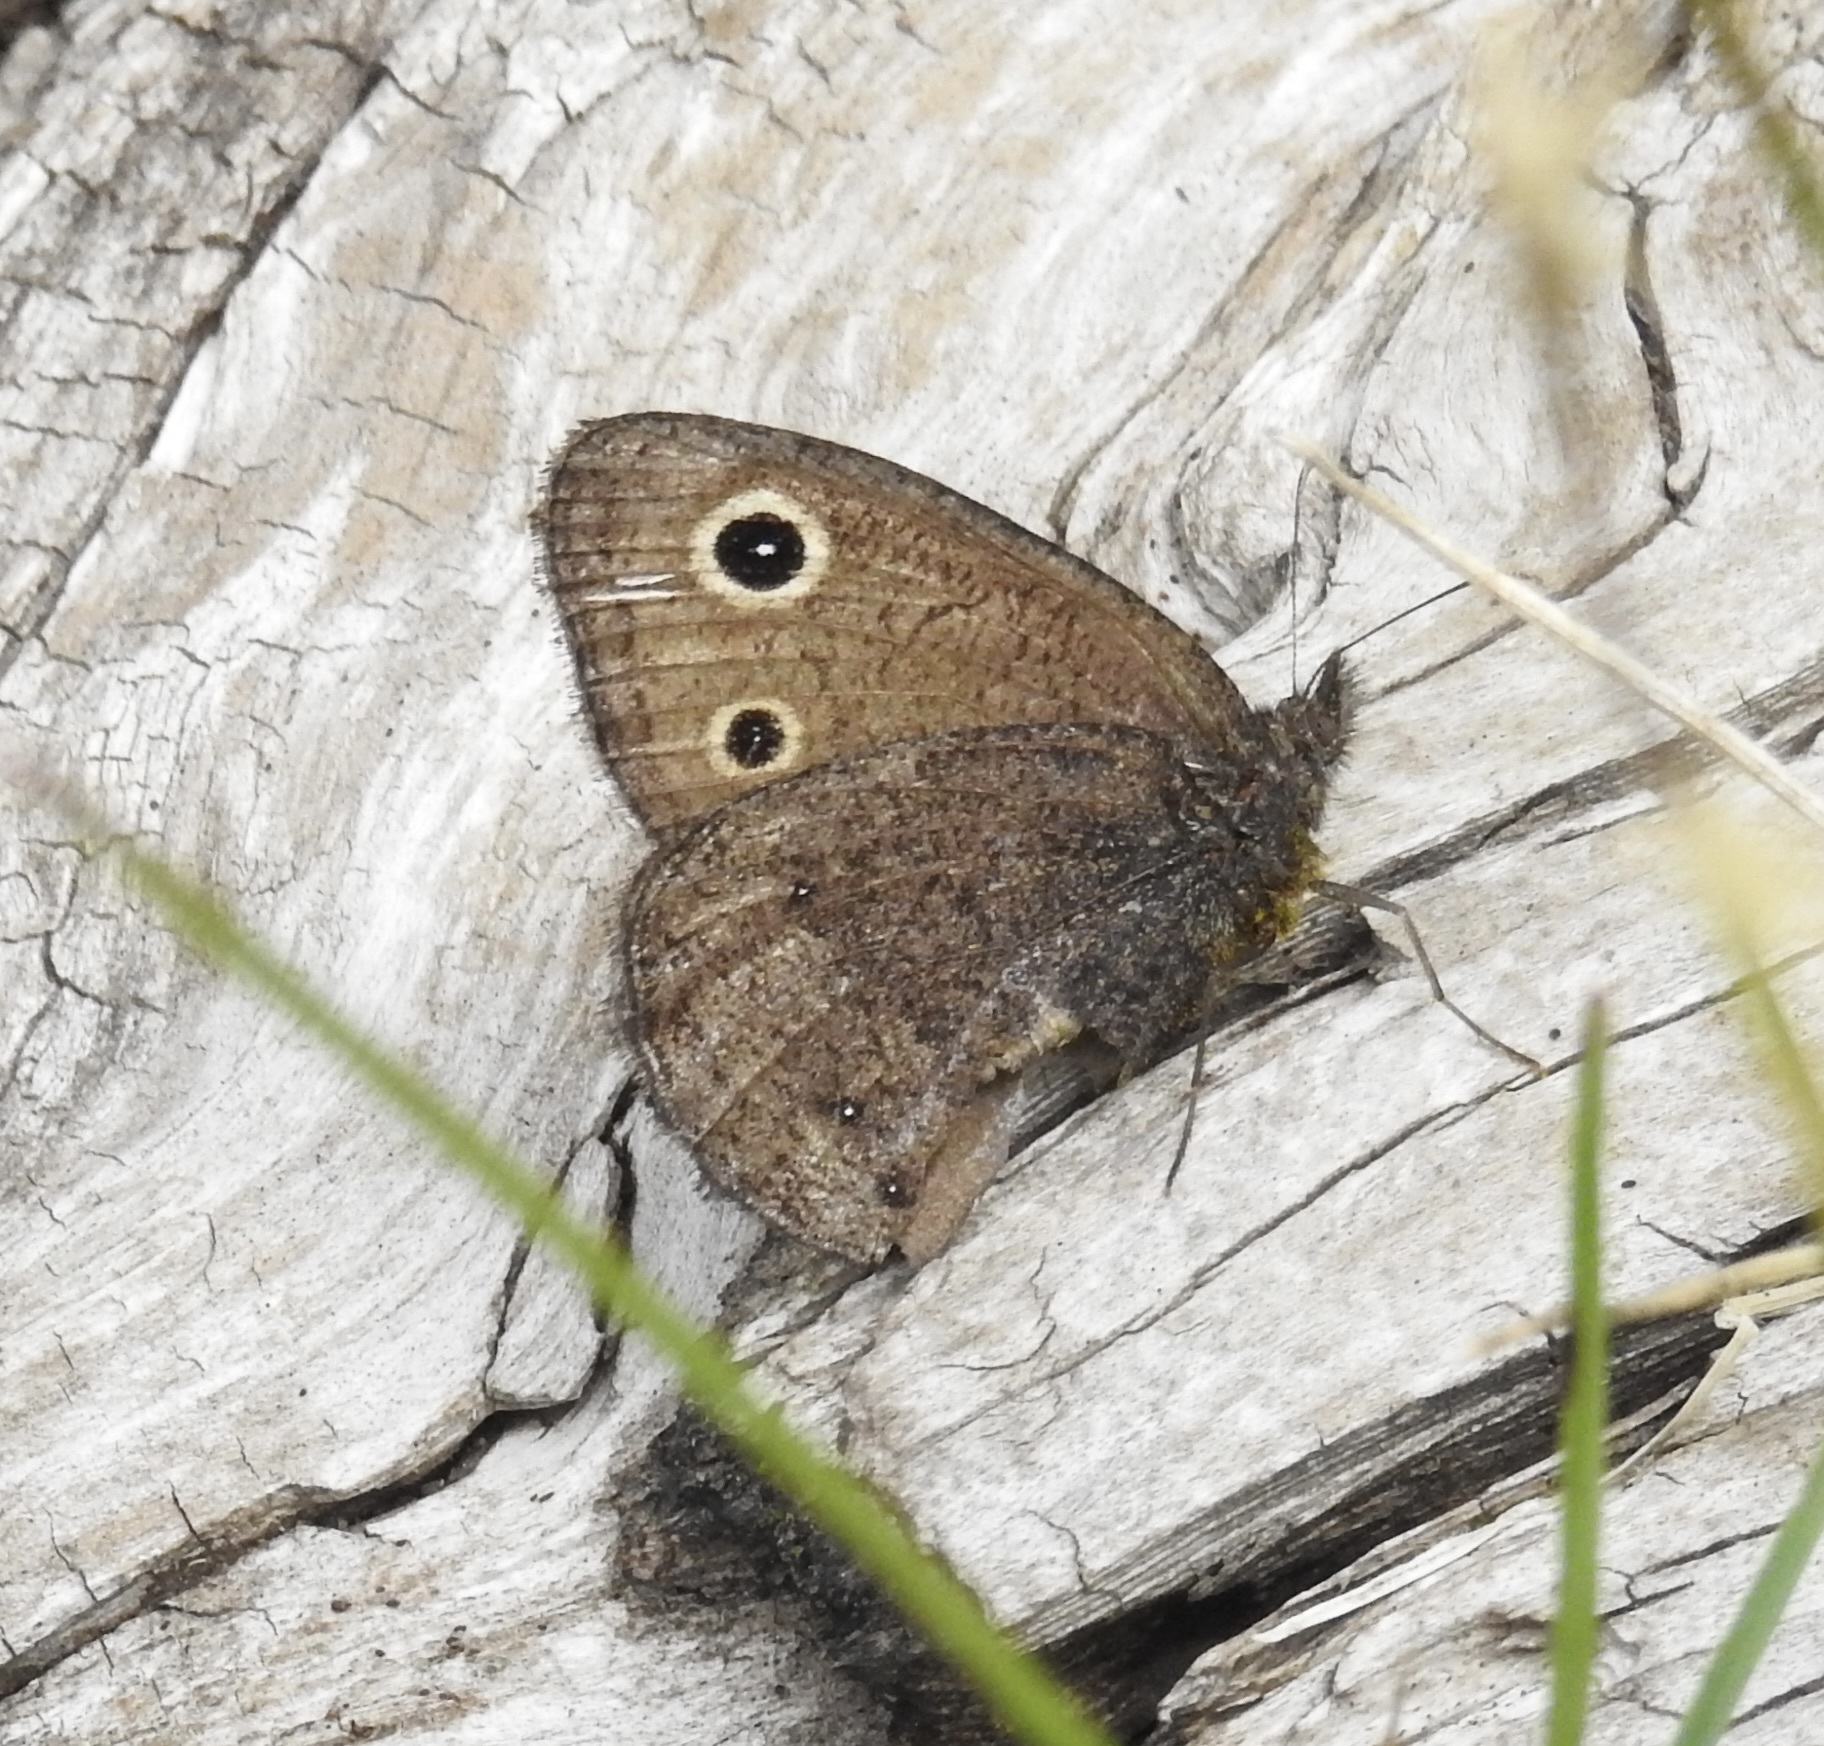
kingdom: Animalia
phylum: Arthropoda
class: Insecta
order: Lepidoptera
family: Nymphalidae
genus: Cercyonis
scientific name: Cercyonis oetus
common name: Small wood-nymph
